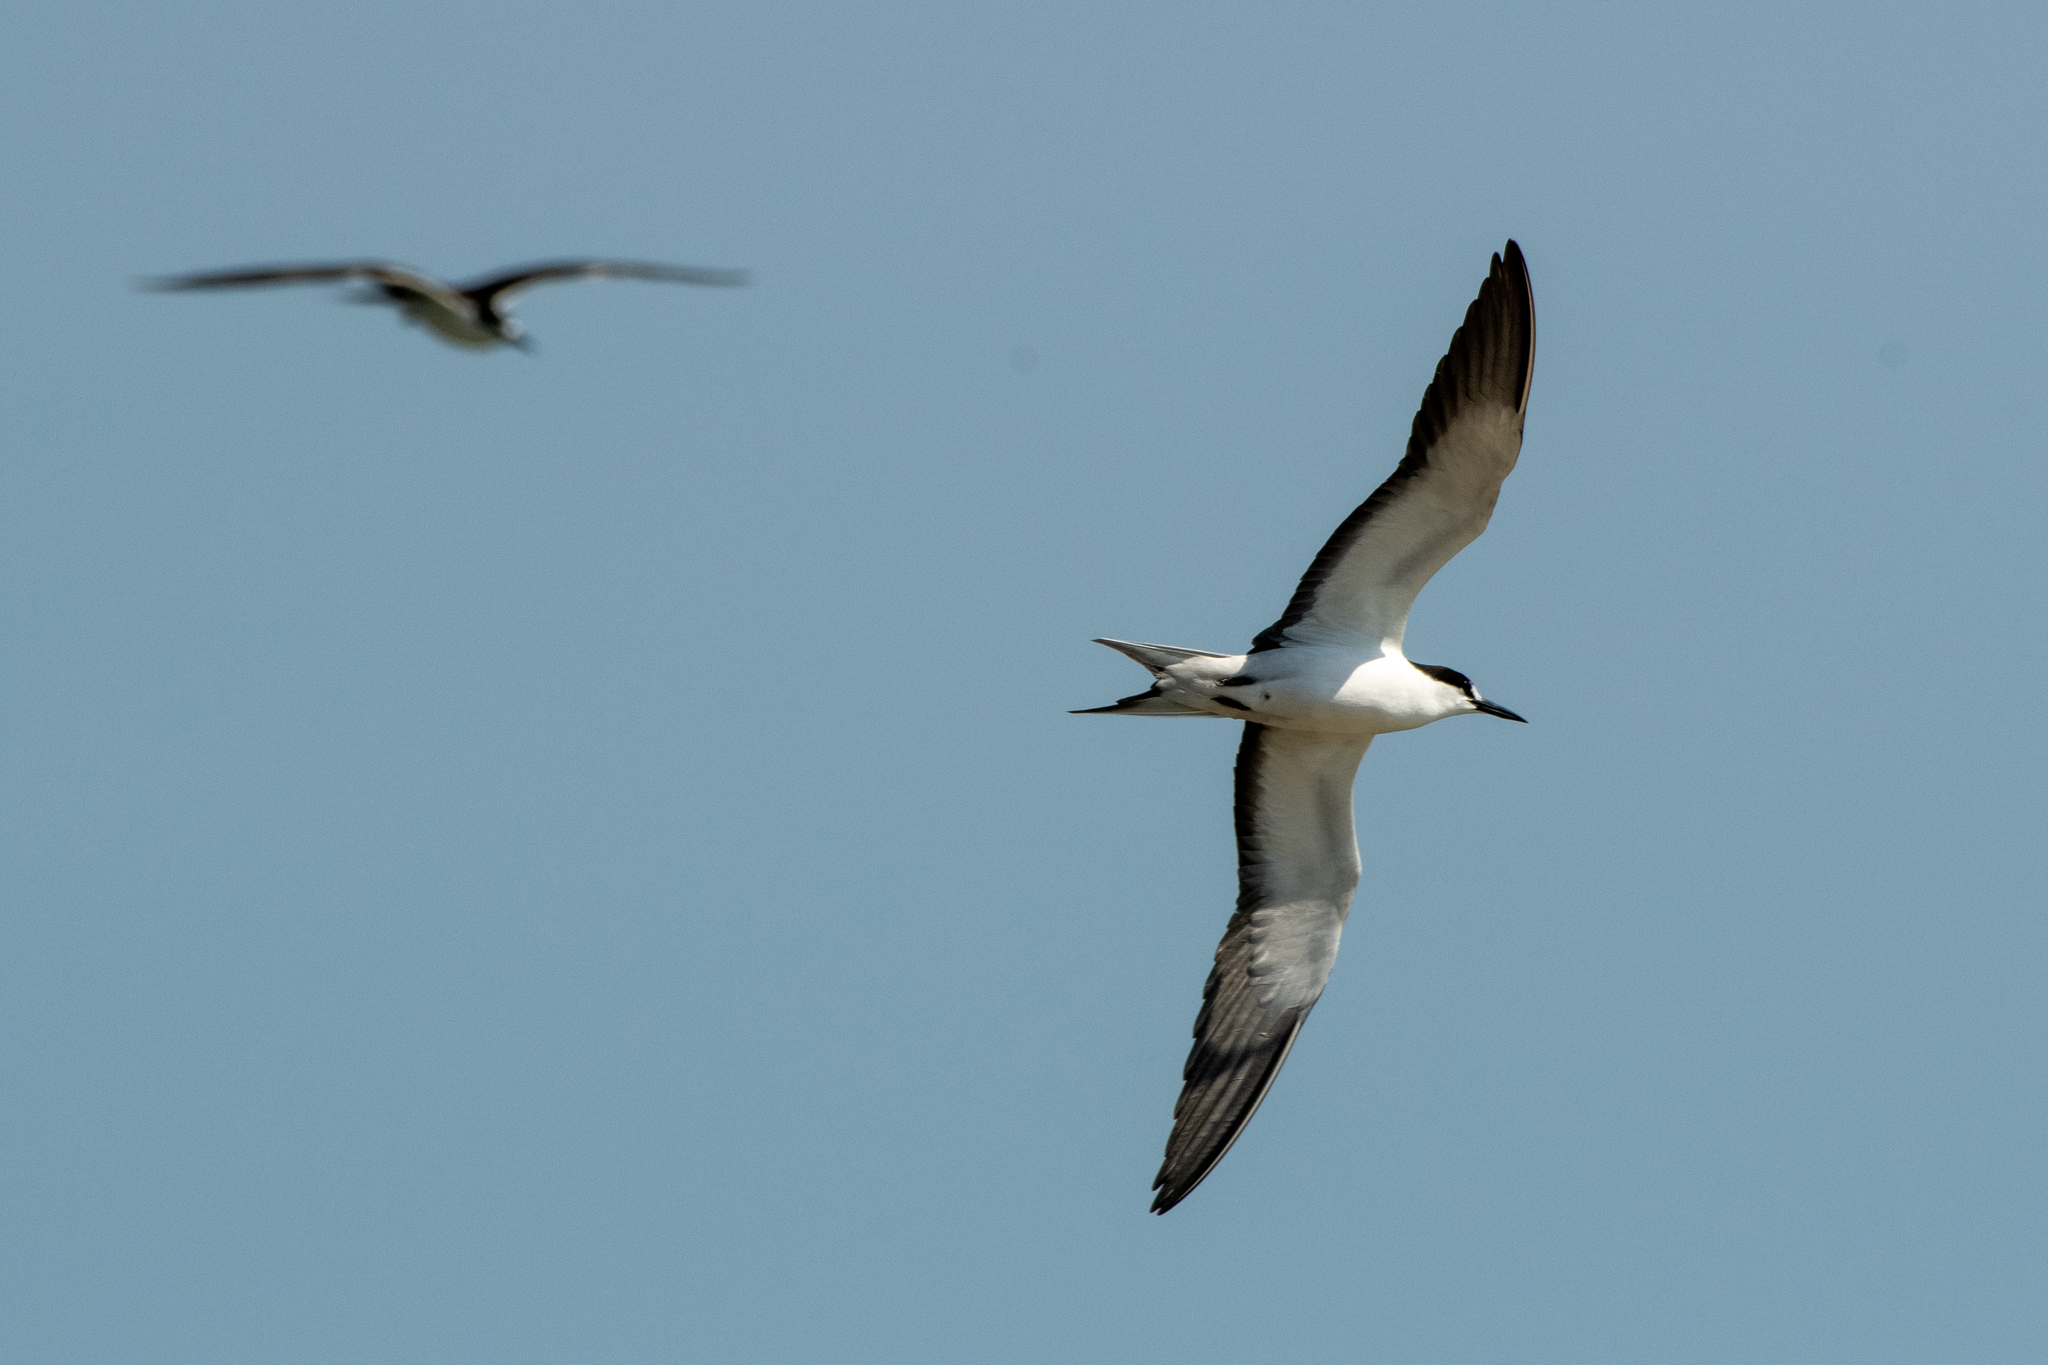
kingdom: Animalia
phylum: Chordata
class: Aves
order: Charadriiformes
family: Laridae
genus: Onychoprion
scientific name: Onychoprion fuscatus
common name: Sooty tern
